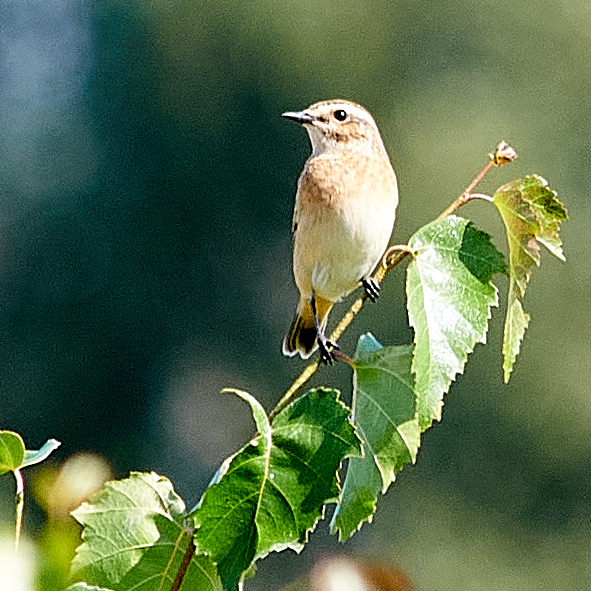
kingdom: Animalia
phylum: Chordata
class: Aves
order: Passeriformes
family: Muscicapidae
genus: Saxicola
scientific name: Saxicola rubetra
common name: Whinchat
